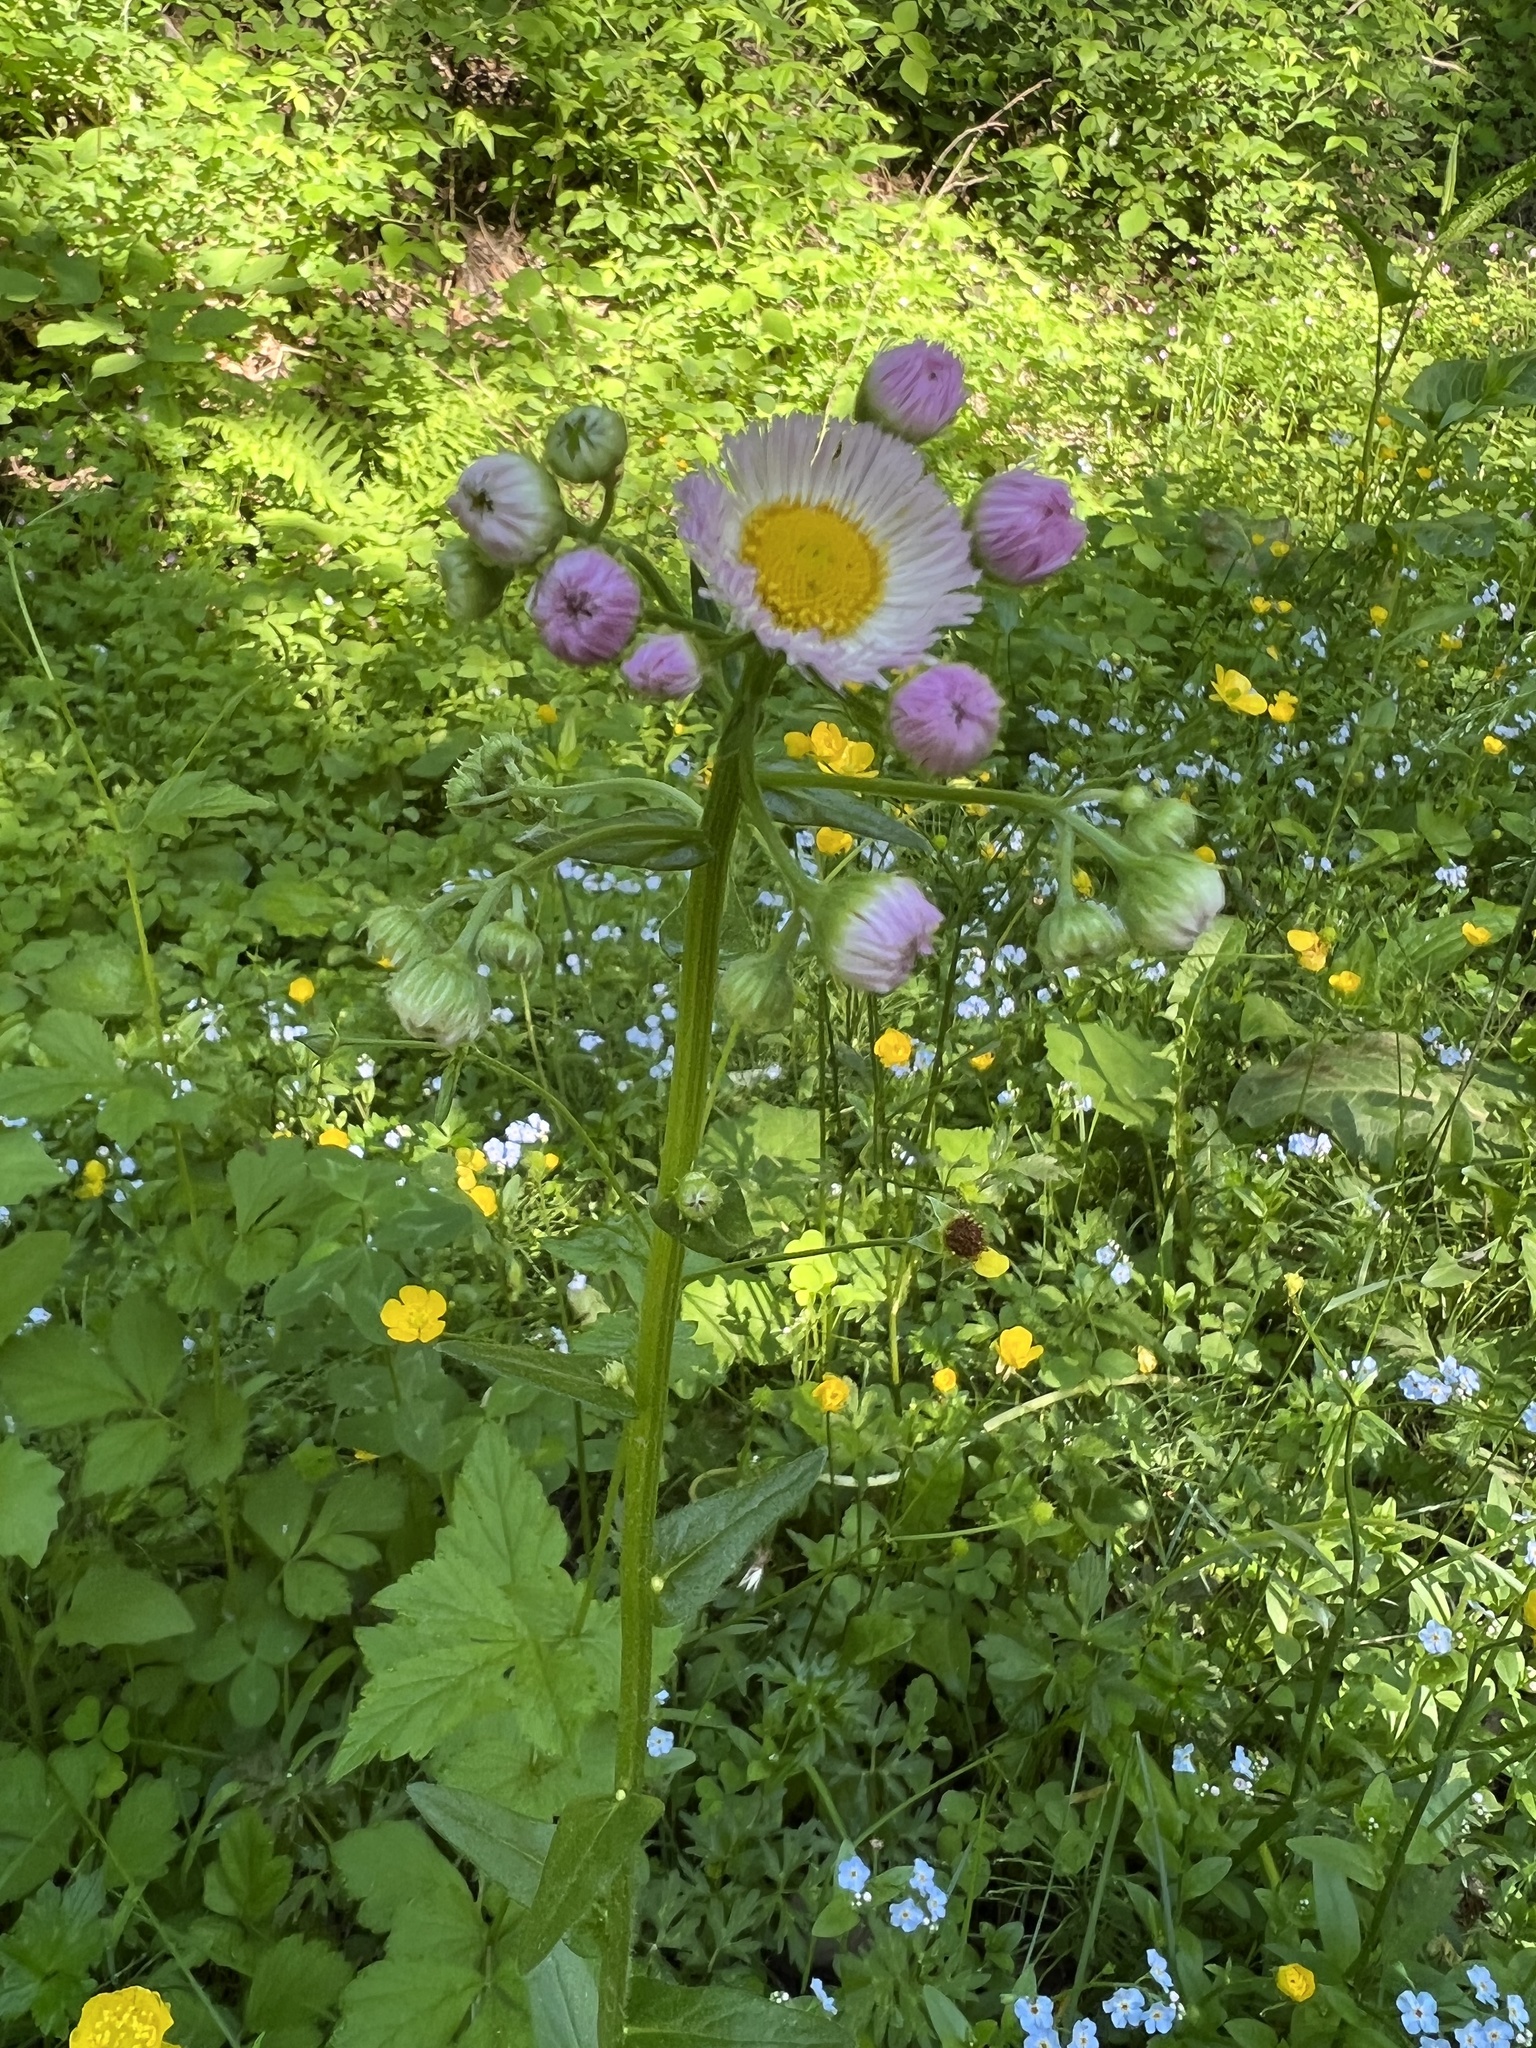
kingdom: Plantae
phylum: Tracheophyta
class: Magnoliopsida
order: Asterales
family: Asteraceae
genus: Erigeron
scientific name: Erigeron philadelphicus
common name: Robin's-plantain
